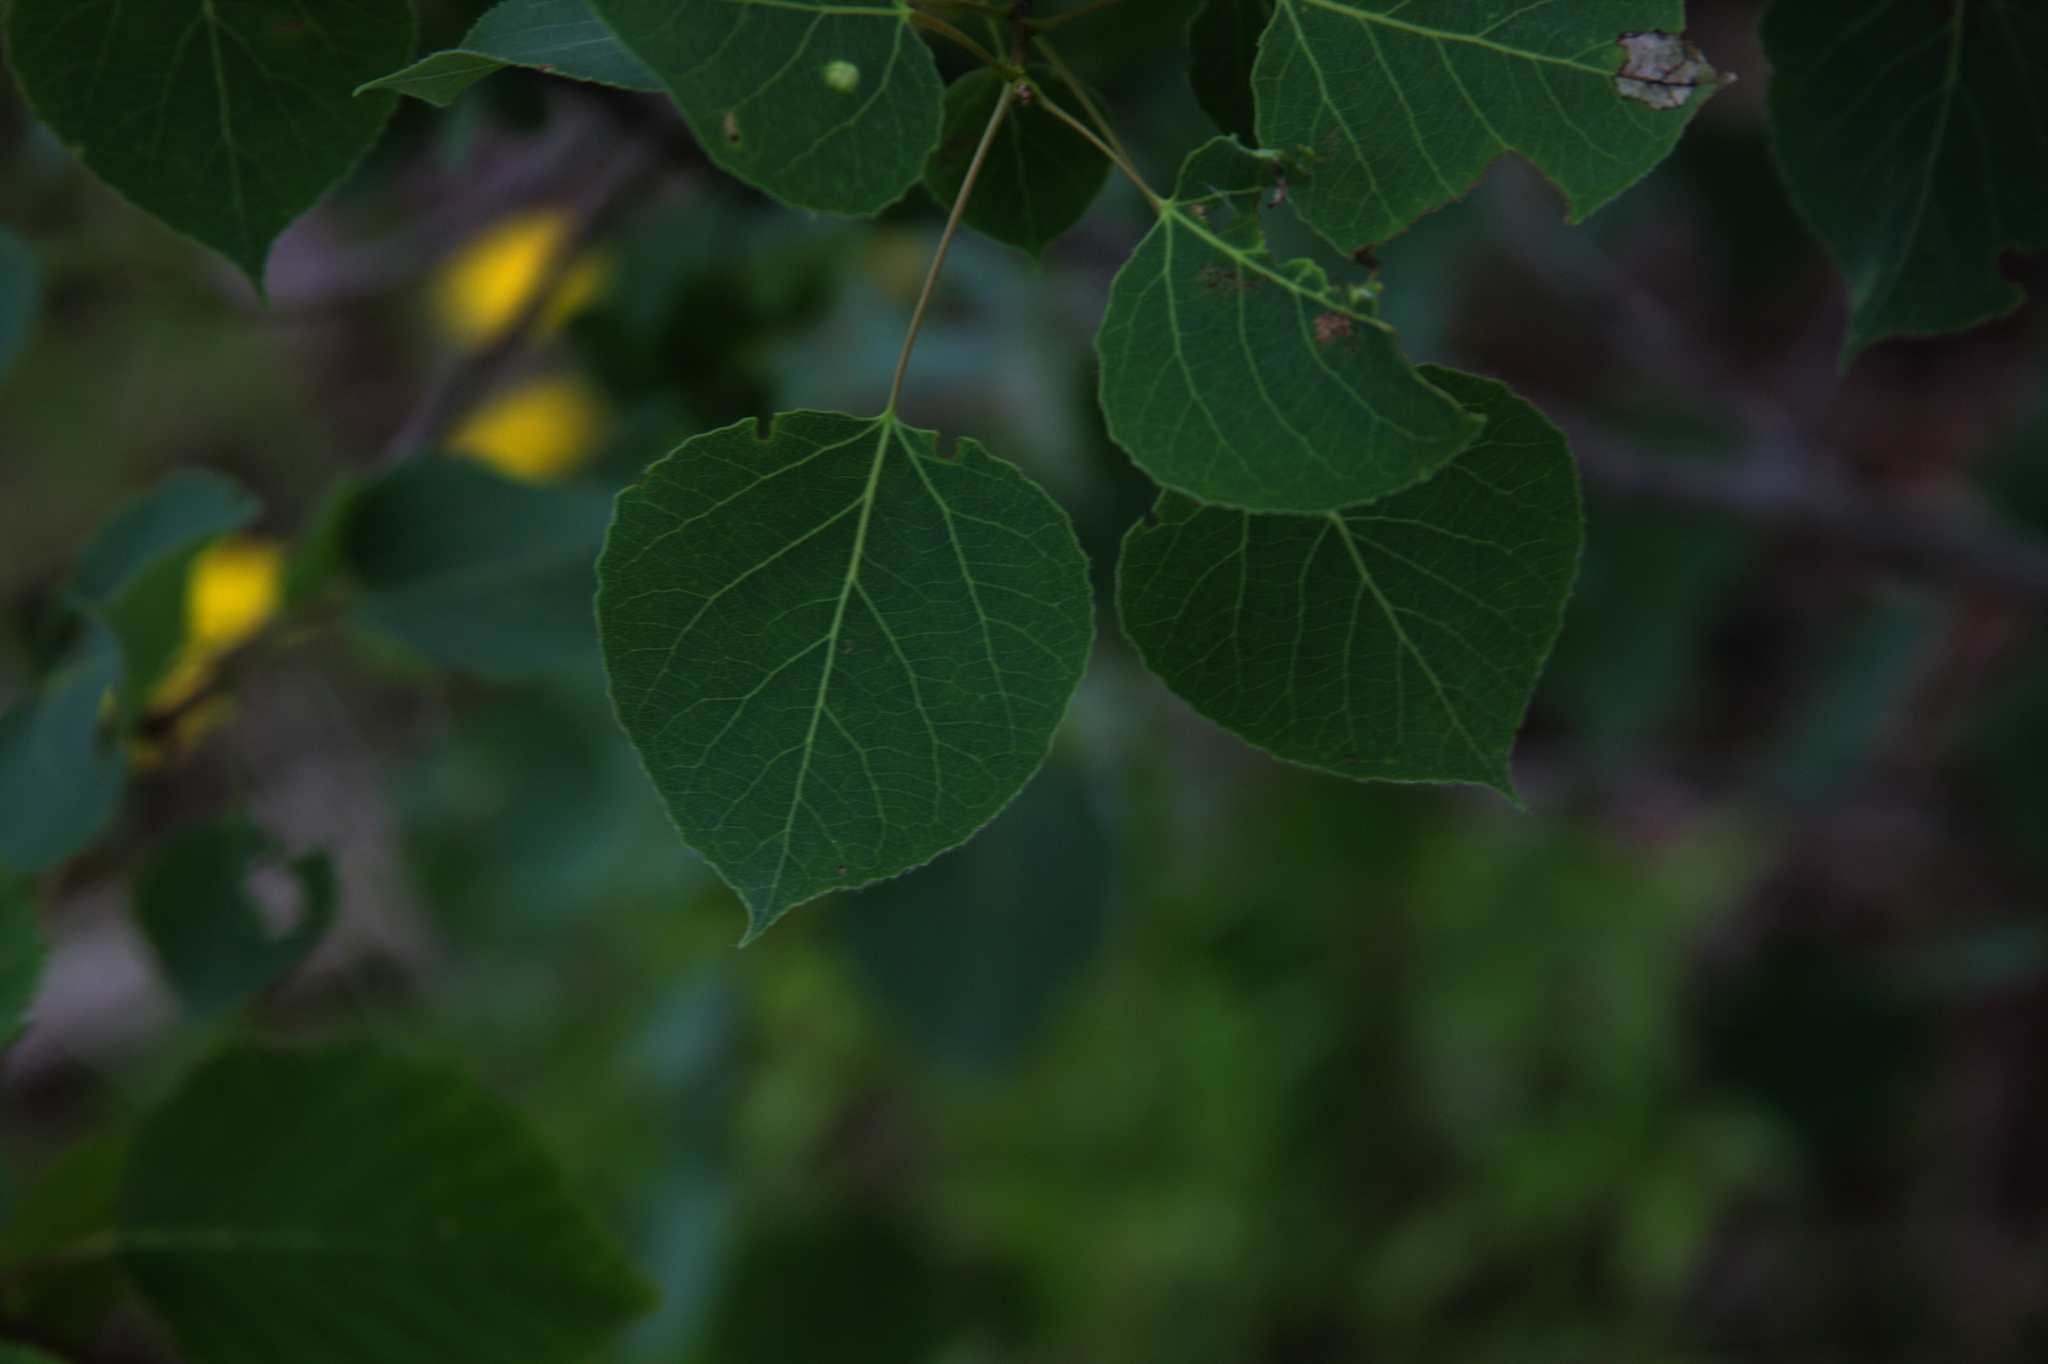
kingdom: Plantae
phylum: Tracheophyta
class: Magnoliopsida
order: Malpighiales
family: Salicaceae
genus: Populus
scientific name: Populus tremuloides
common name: Quaking aspen
